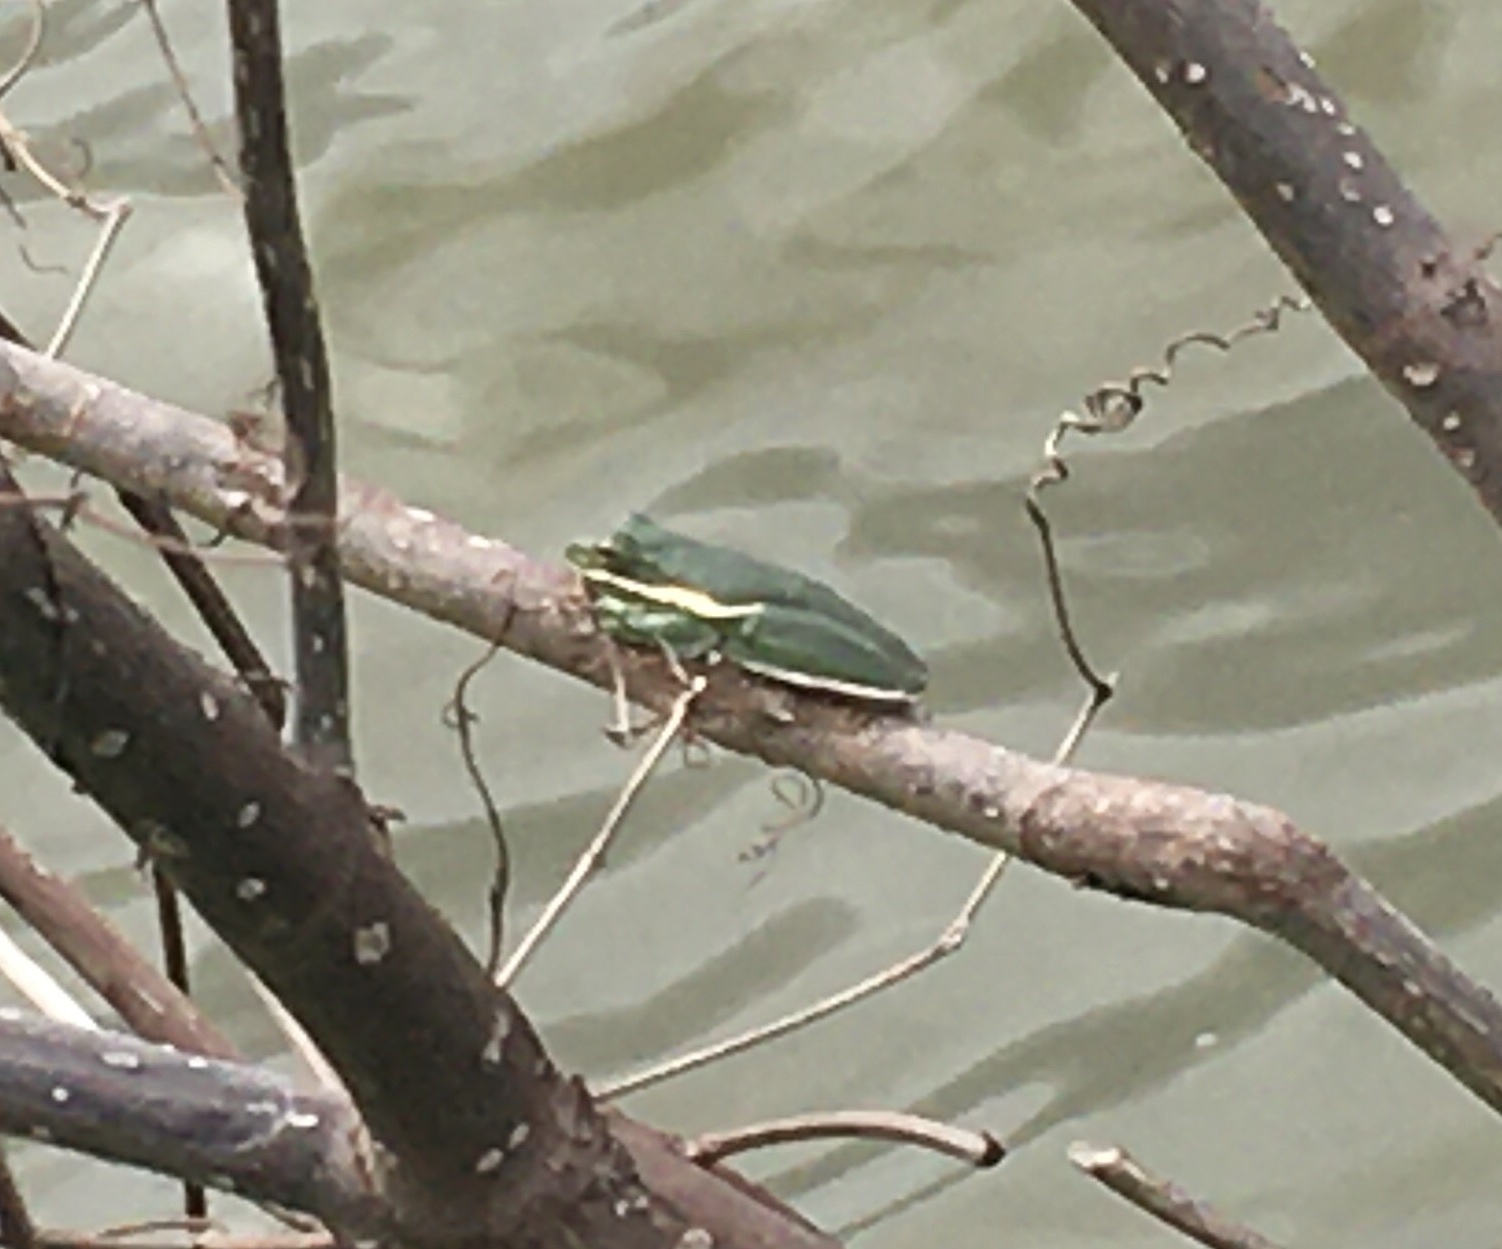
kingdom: Animalia
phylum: Chordata
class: Amphibia
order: Anura
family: Hylidae
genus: Dryophytes
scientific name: Dryophytes cinereus
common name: Green treefrog
